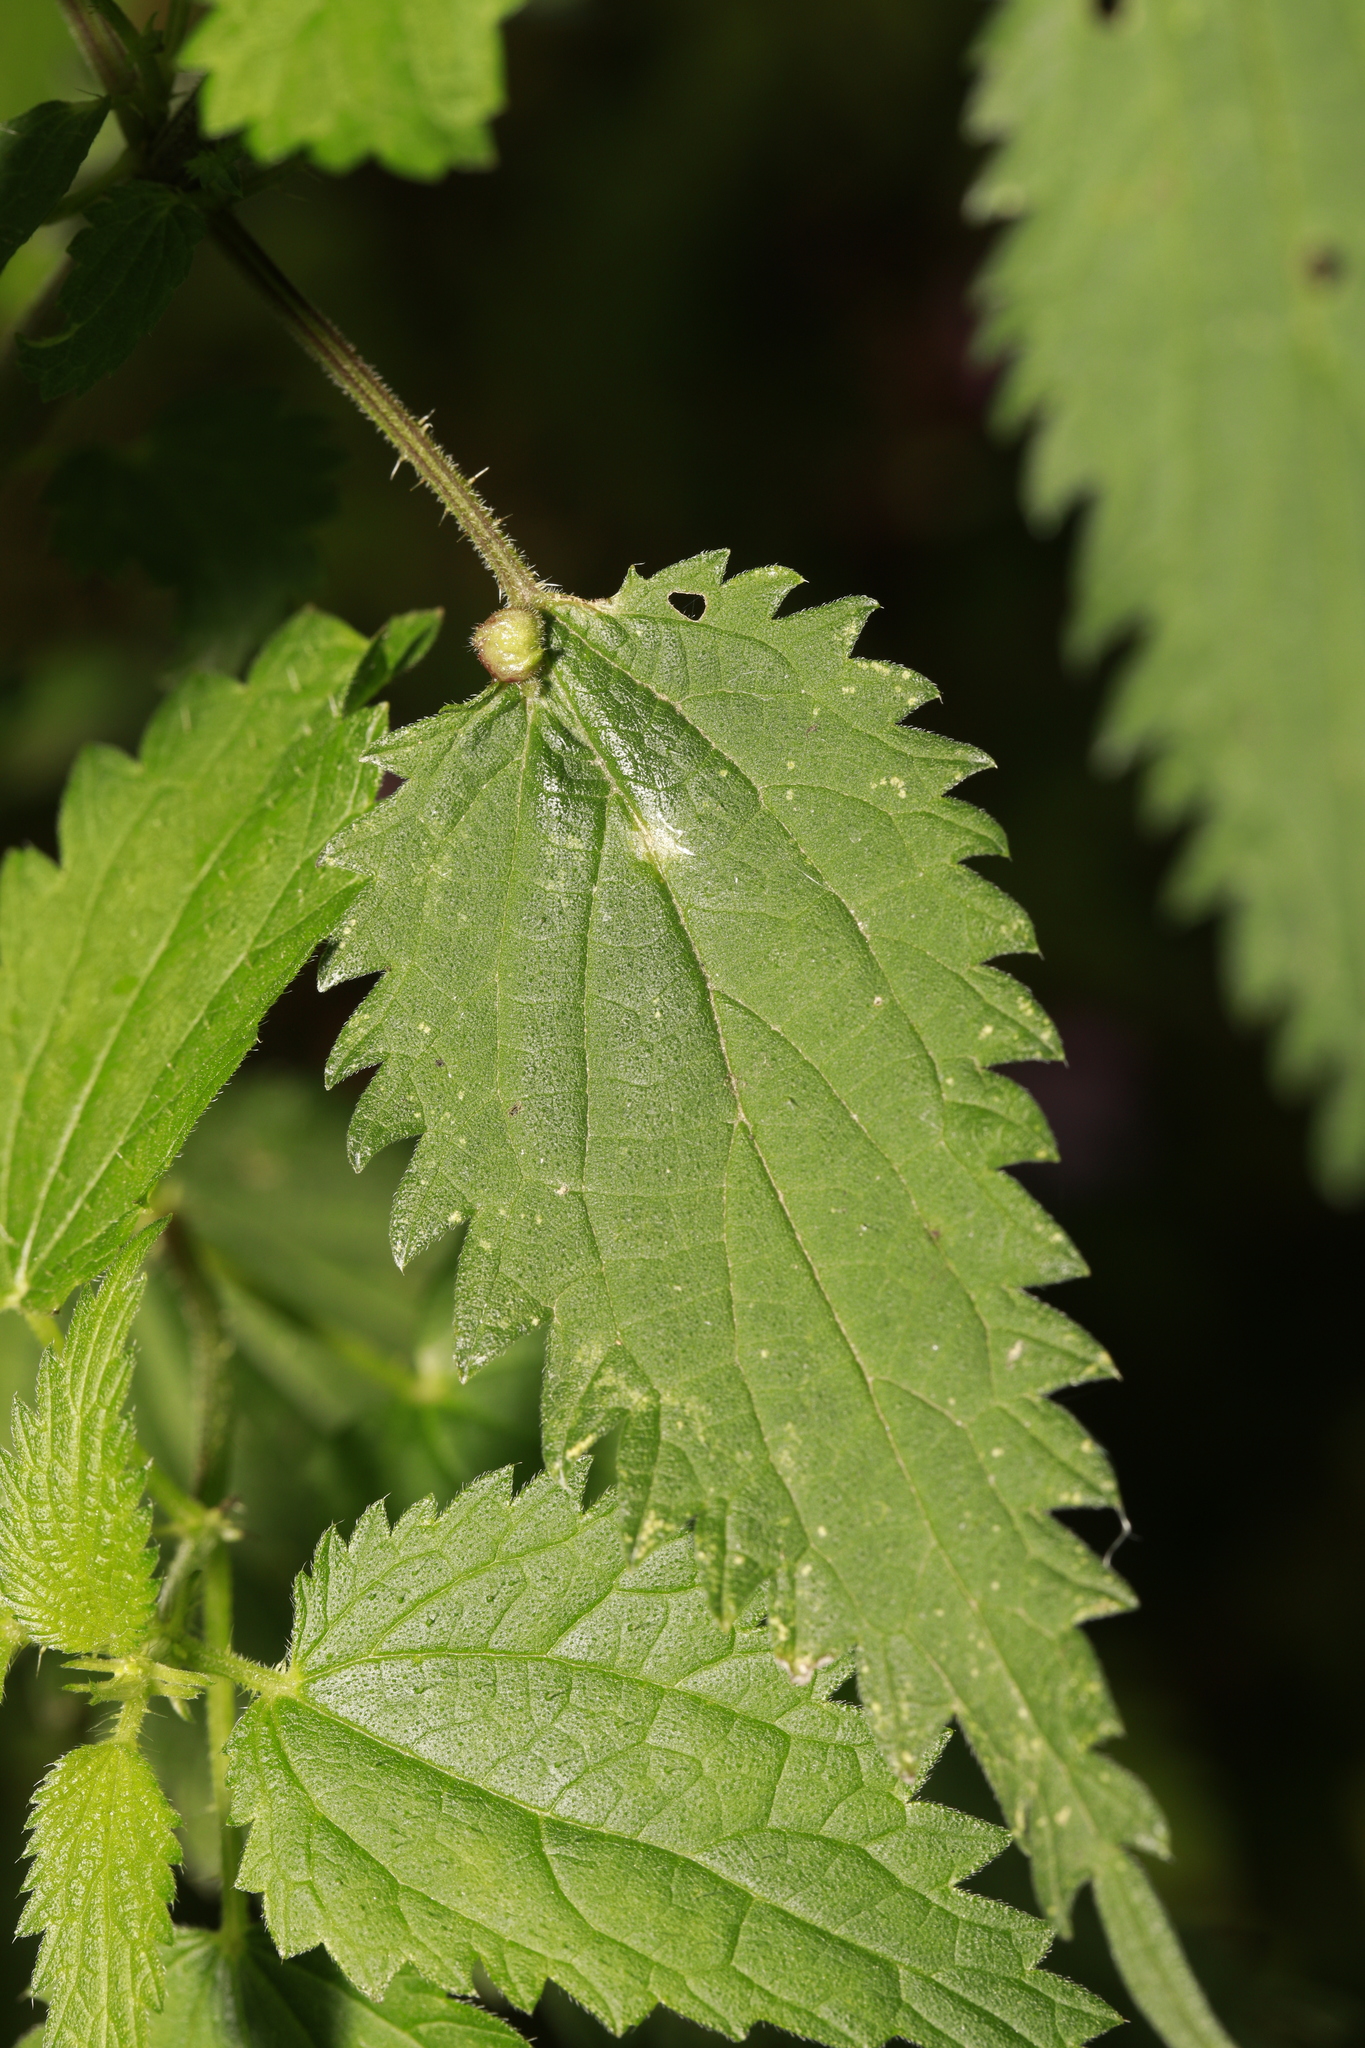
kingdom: Animalia
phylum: Arthropoda
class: Insecta
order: Diptera
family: Cecidomyiidae
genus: Dasineura
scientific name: Dasineura urticae
